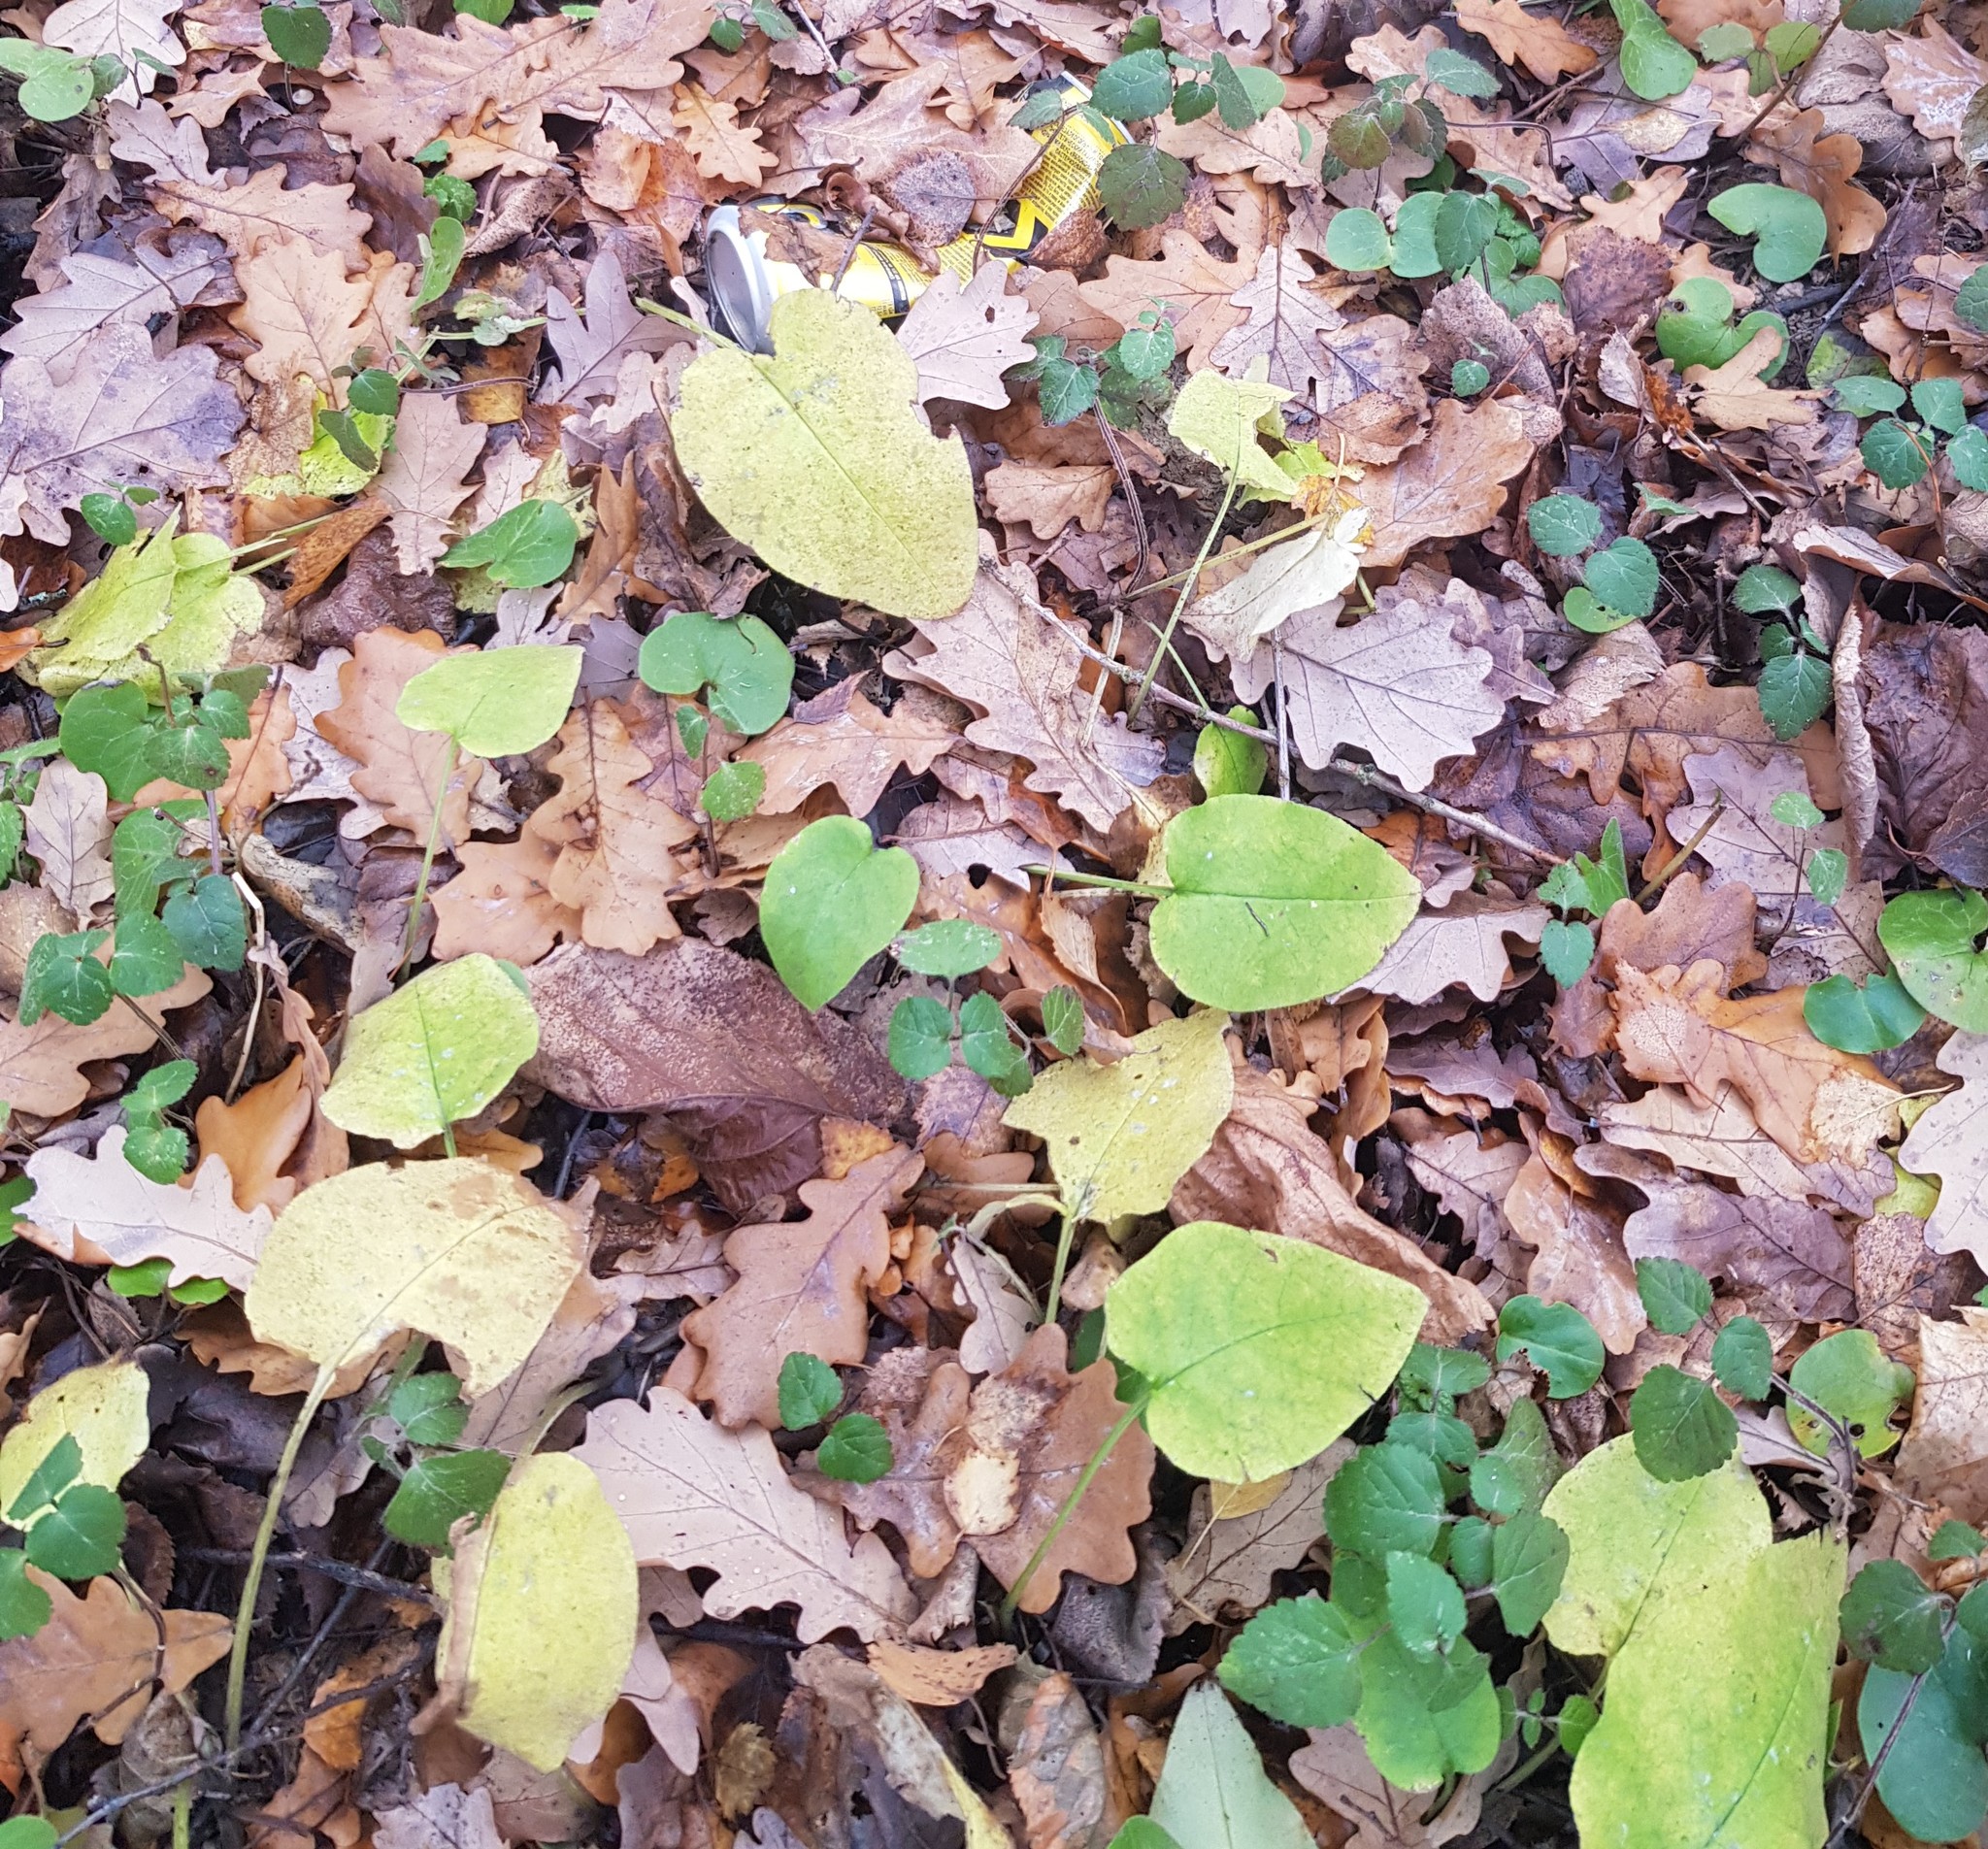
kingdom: Plantae
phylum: Tracheophyta
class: Magnoliopsida
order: Boraginales
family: Boraginaceae
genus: Pulmonaria
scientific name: Pulmonaria obscura
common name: Suffolk lungwort
